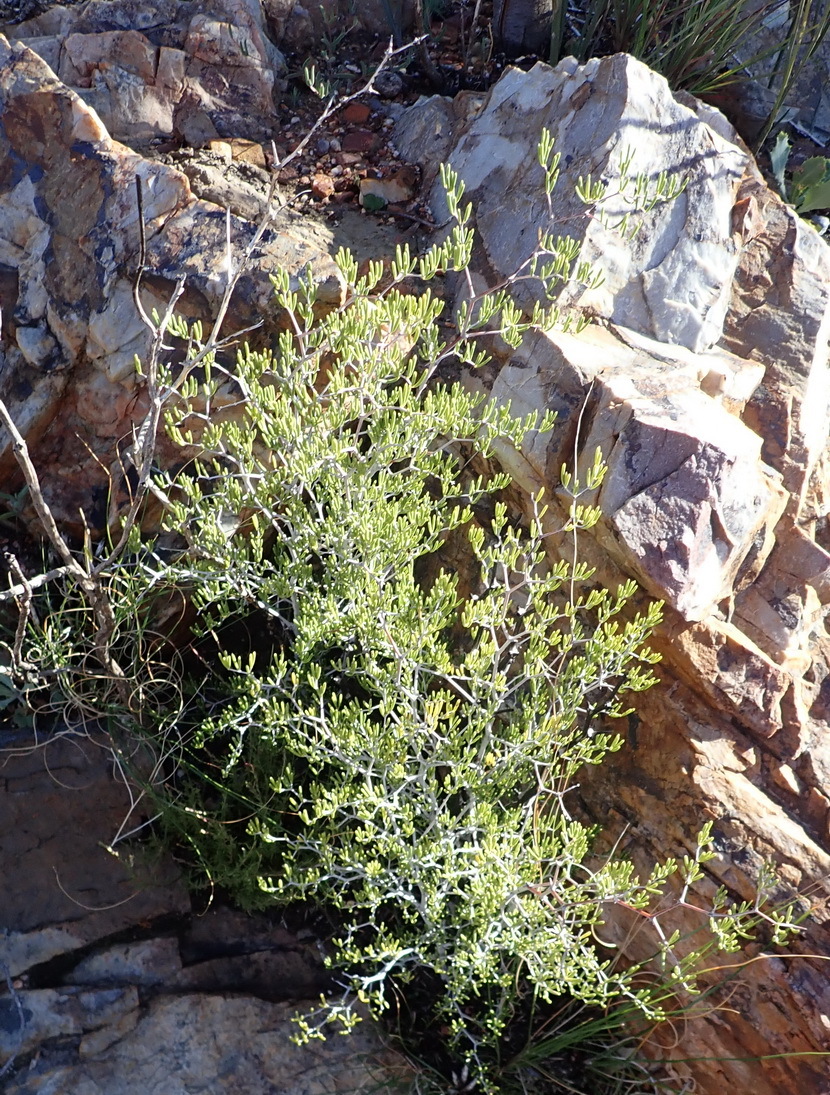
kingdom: Plantae
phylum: Tracheophyta
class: Liliopsida
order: Asparagales
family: Asparagaceae
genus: Asparagus
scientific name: Asparagus lignosus
